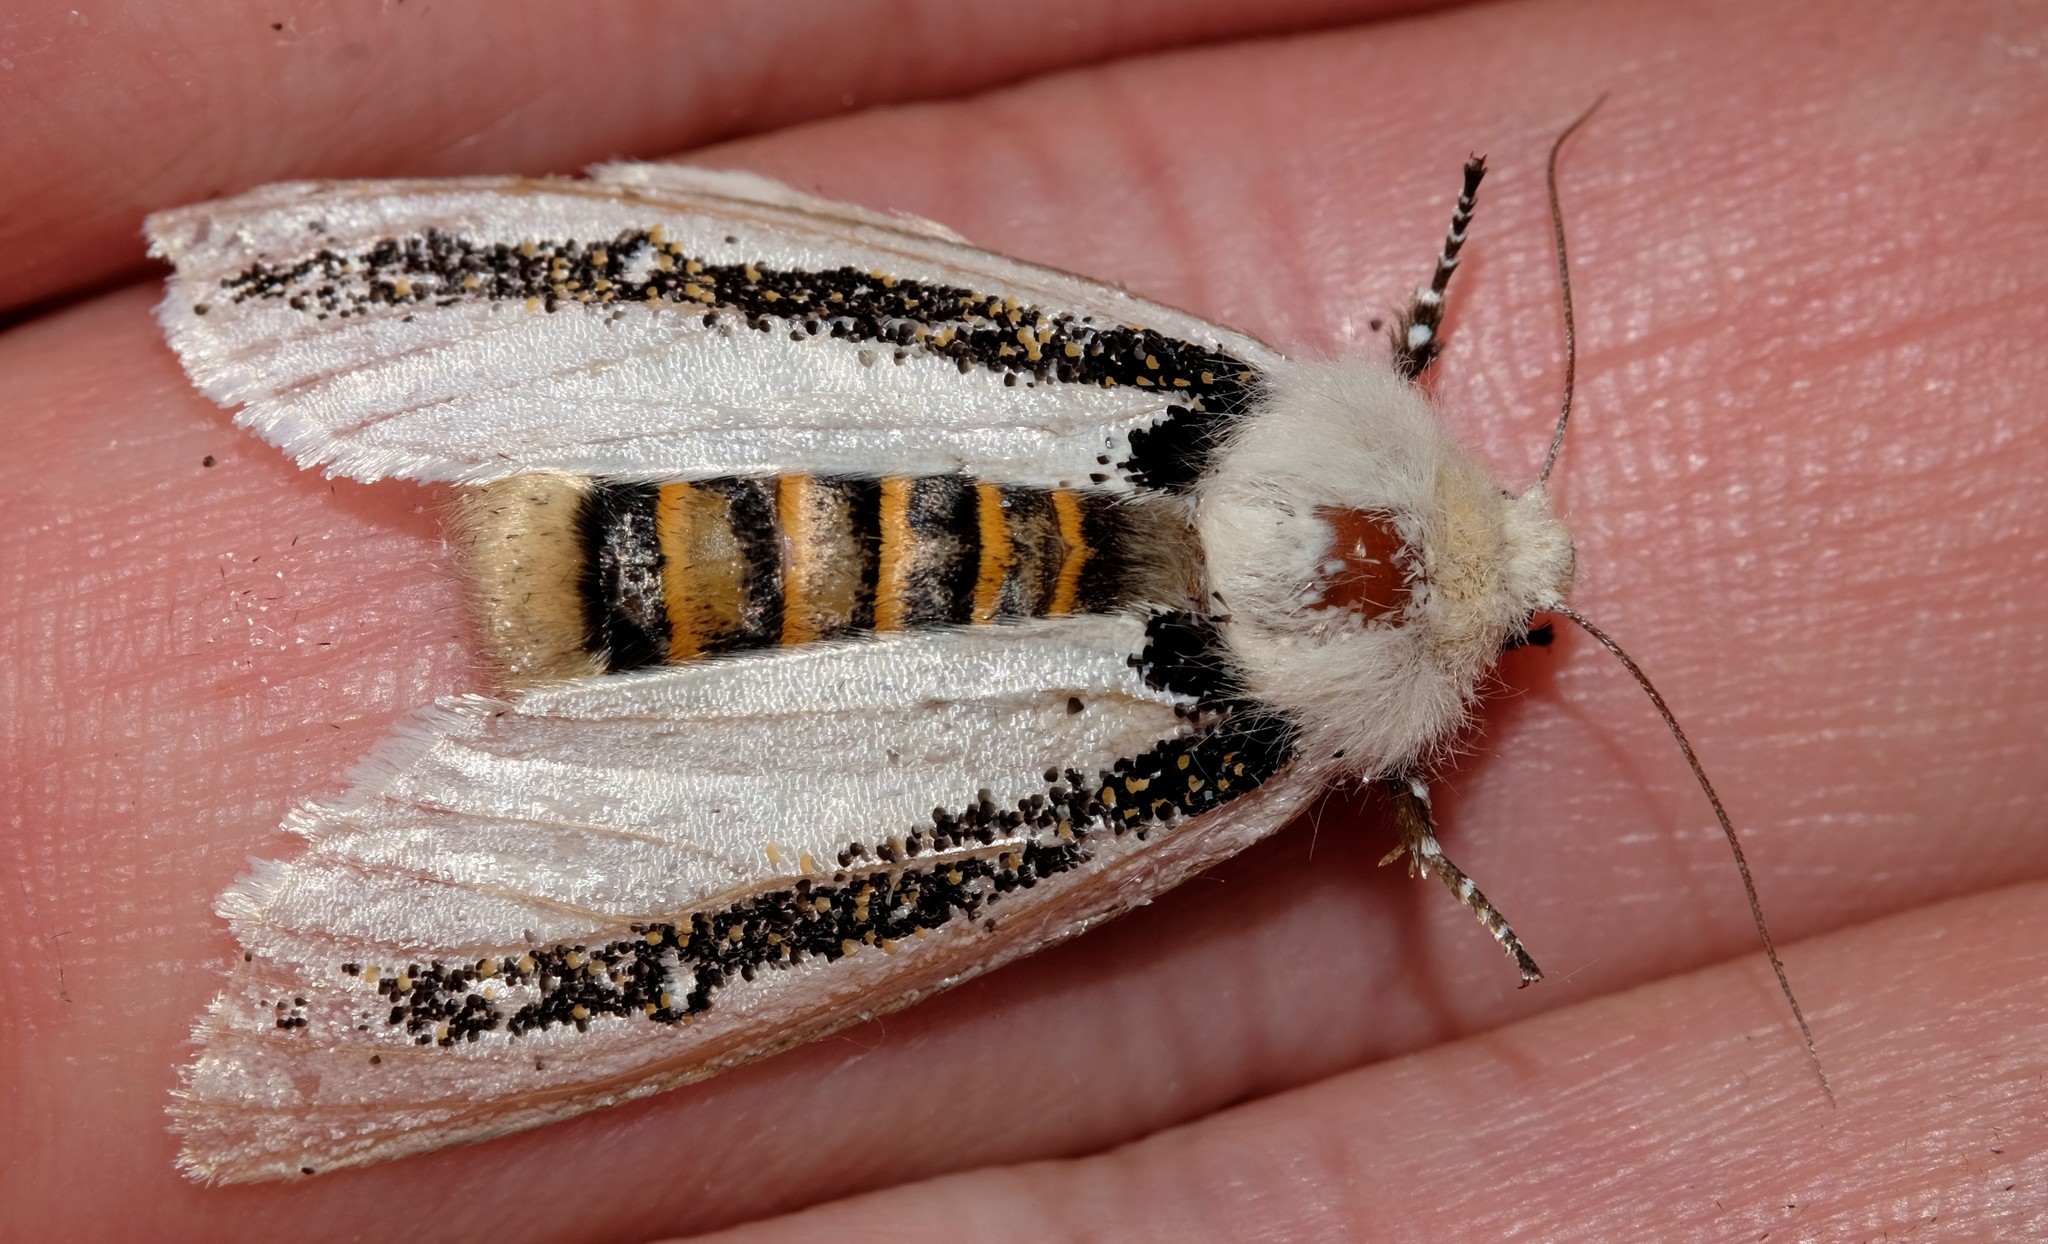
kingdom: Animalia
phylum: Arthropoda
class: Insecta
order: Lepidoptera
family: Oenosandridae
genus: Oenosandra
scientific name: Oenosandra boisduvalii
